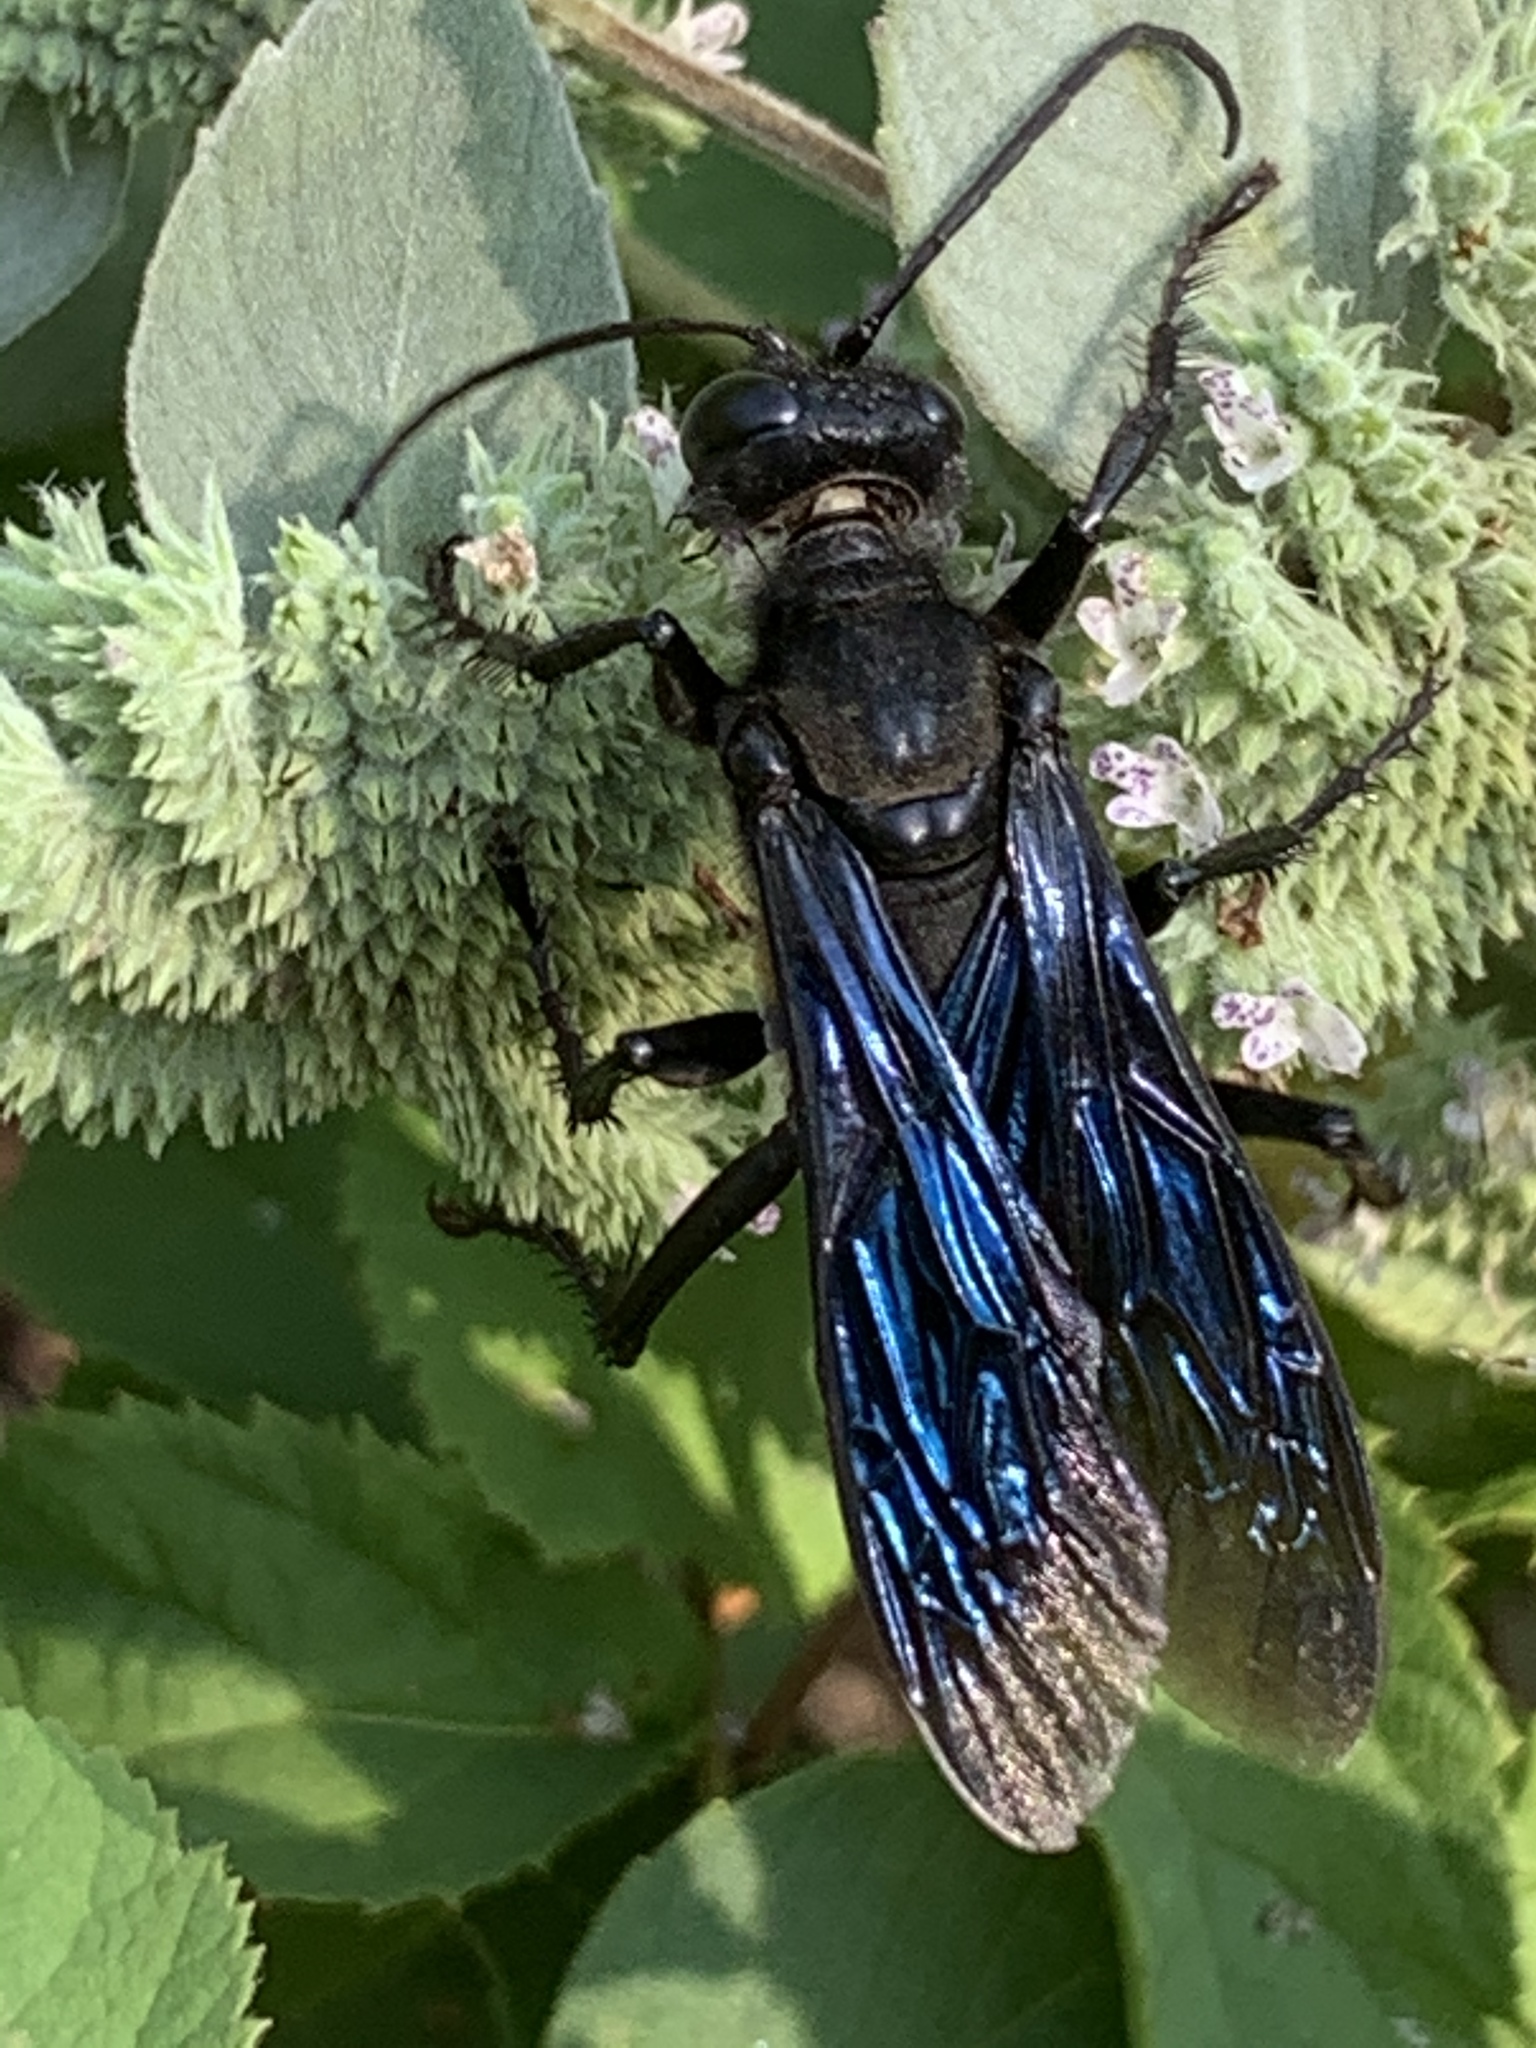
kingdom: Animalia
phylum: Arthropoda
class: Insecta
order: Hymenoptera
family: Sphecidae
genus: Sphex
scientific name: Sphex pensylvanicus
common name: Great black digger wasp
